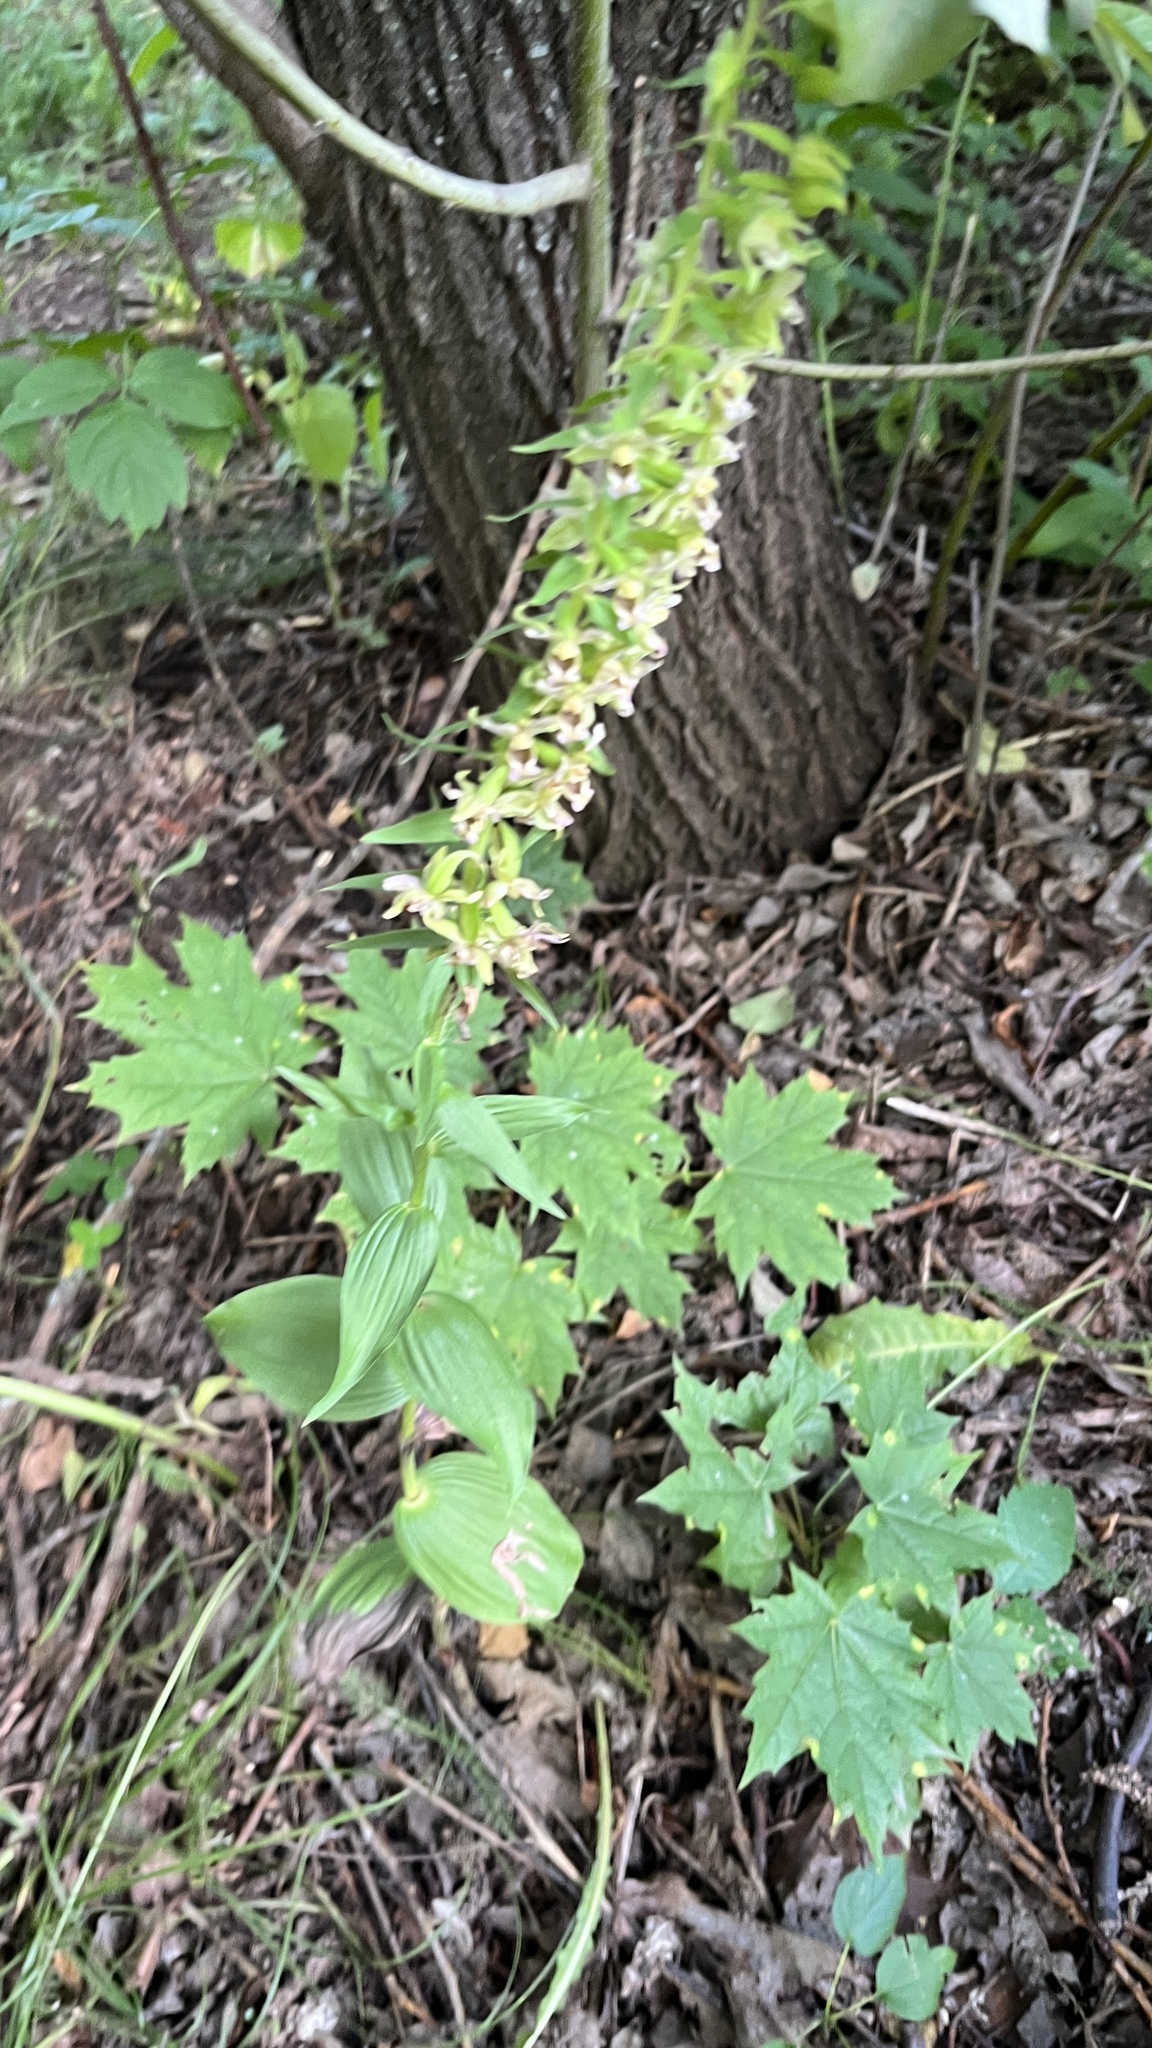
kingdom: Plantae
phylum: Tracheophyta
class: Liliopsida
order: Asparagales
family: Orchidaceae
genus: Epipactis
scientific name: Epipactis helleborine
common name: Broad-leaved helleborine
